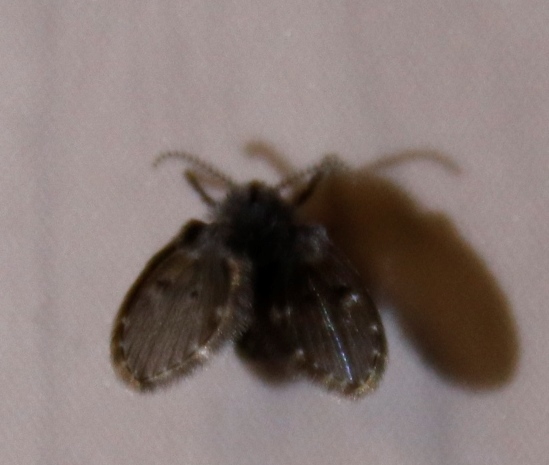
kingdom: Animalia
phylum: Arthropoda
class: Insecta
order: Diptera
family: Psychodidae
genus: Clogmia
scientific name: Clogmia albipunctatus
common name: White-spotted moth fly
